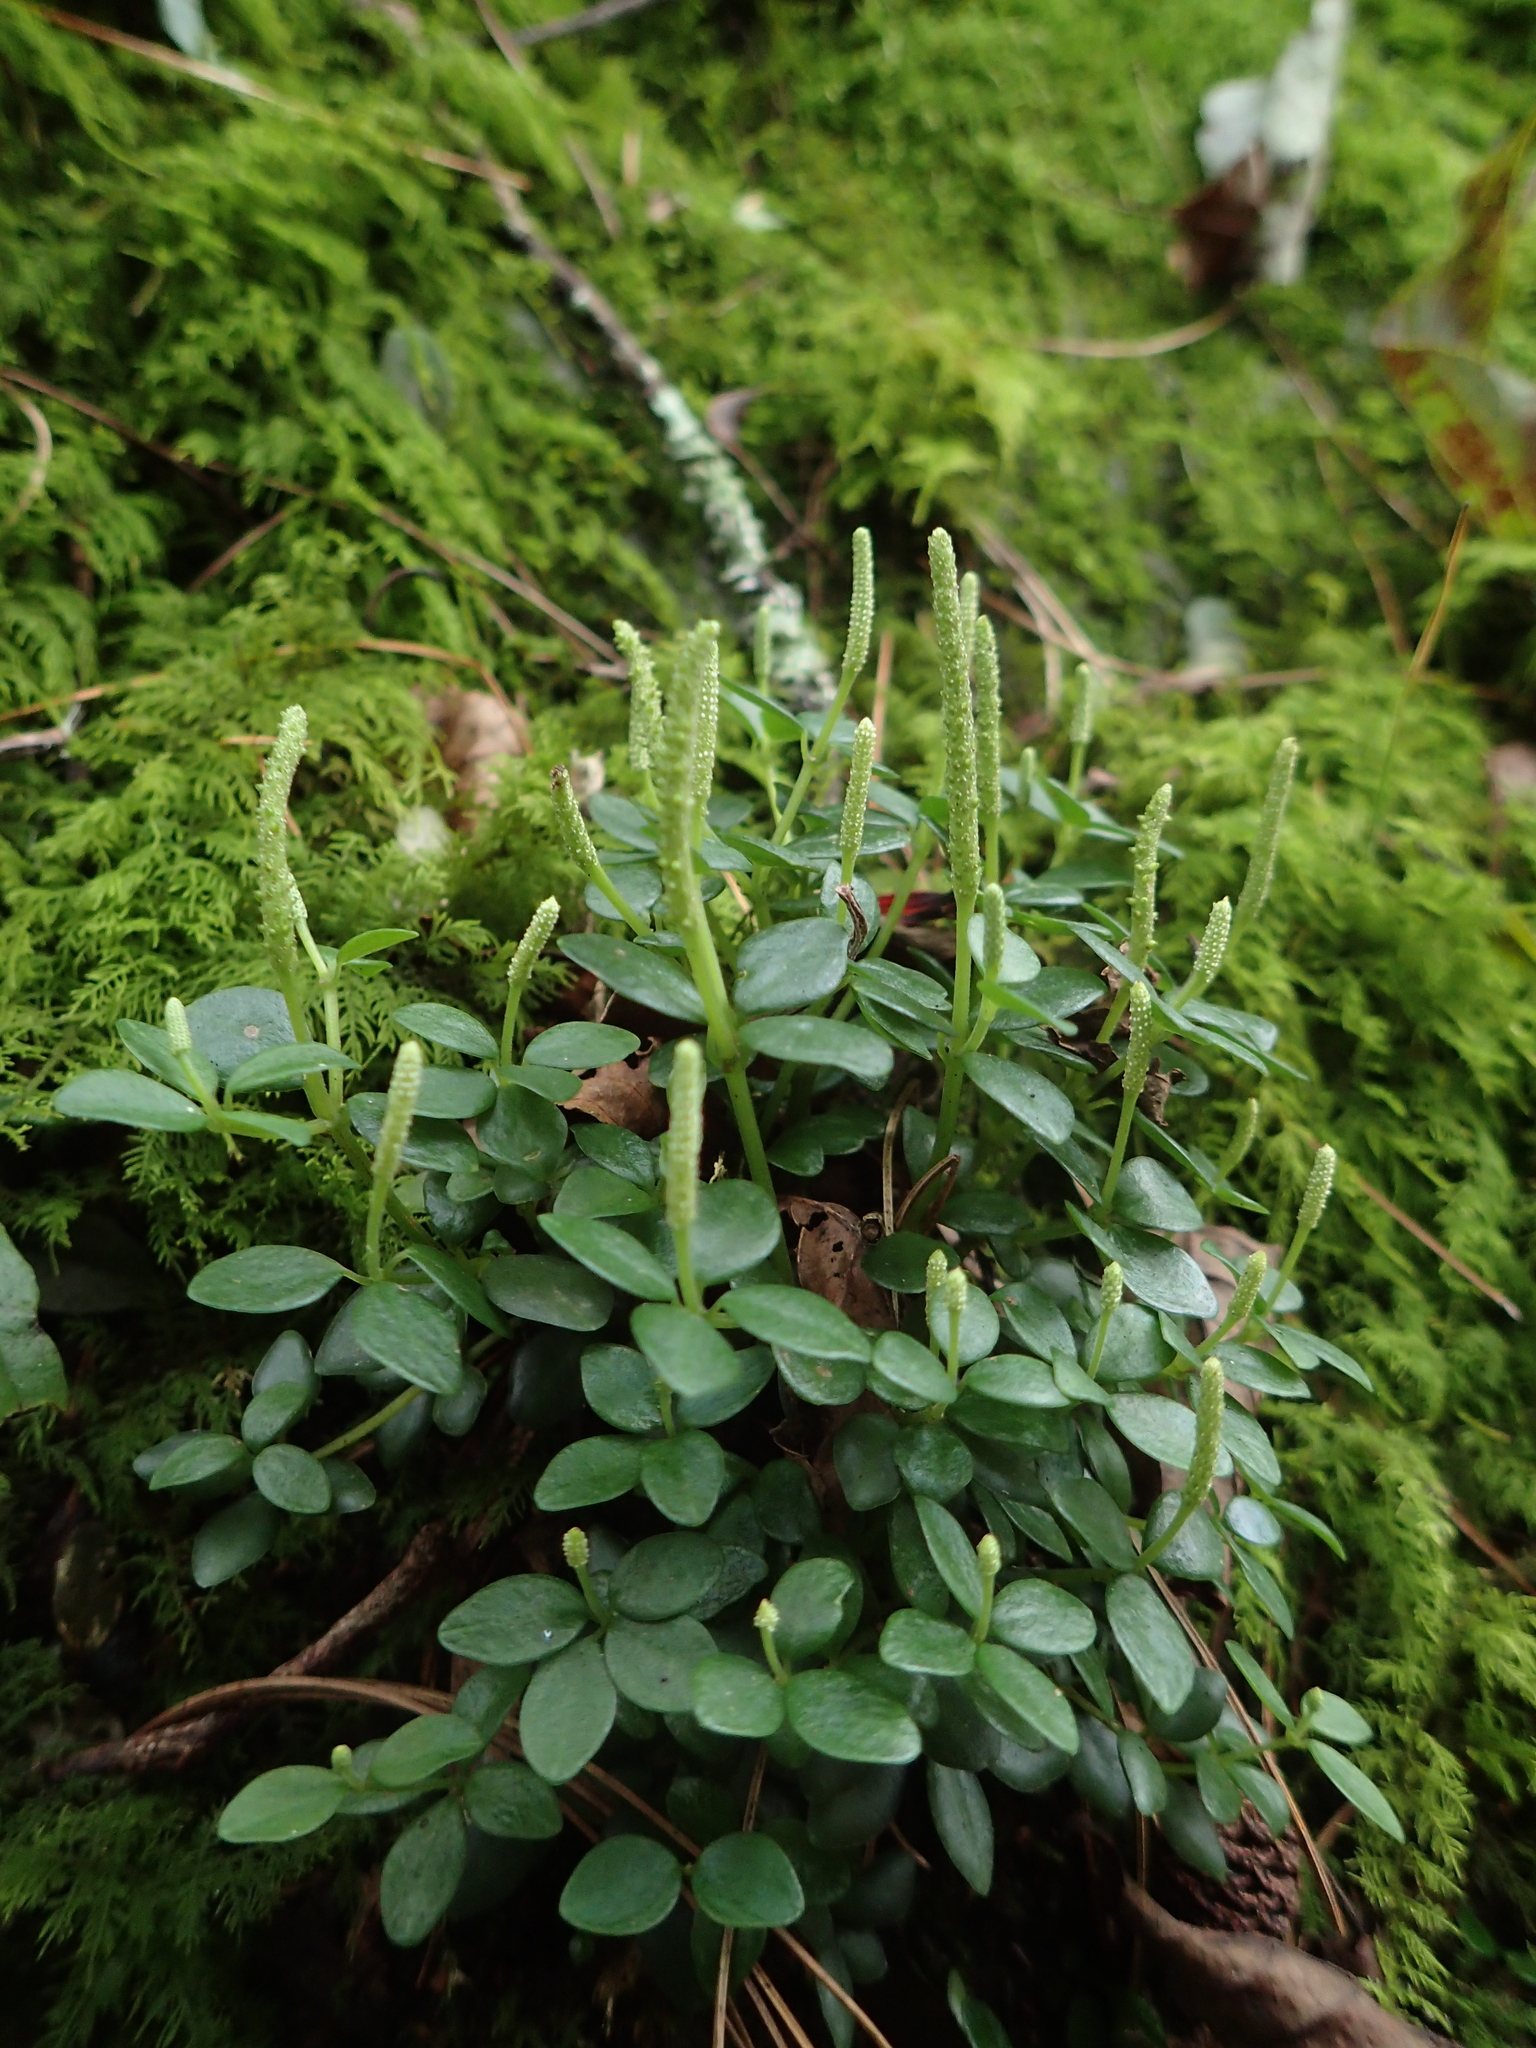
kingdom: Plantae
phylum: Tracheophyta
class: Magnoliopsida
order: Piperales
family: Piperaceae
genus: Peperomia
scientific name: Peperomia tetraphylla
